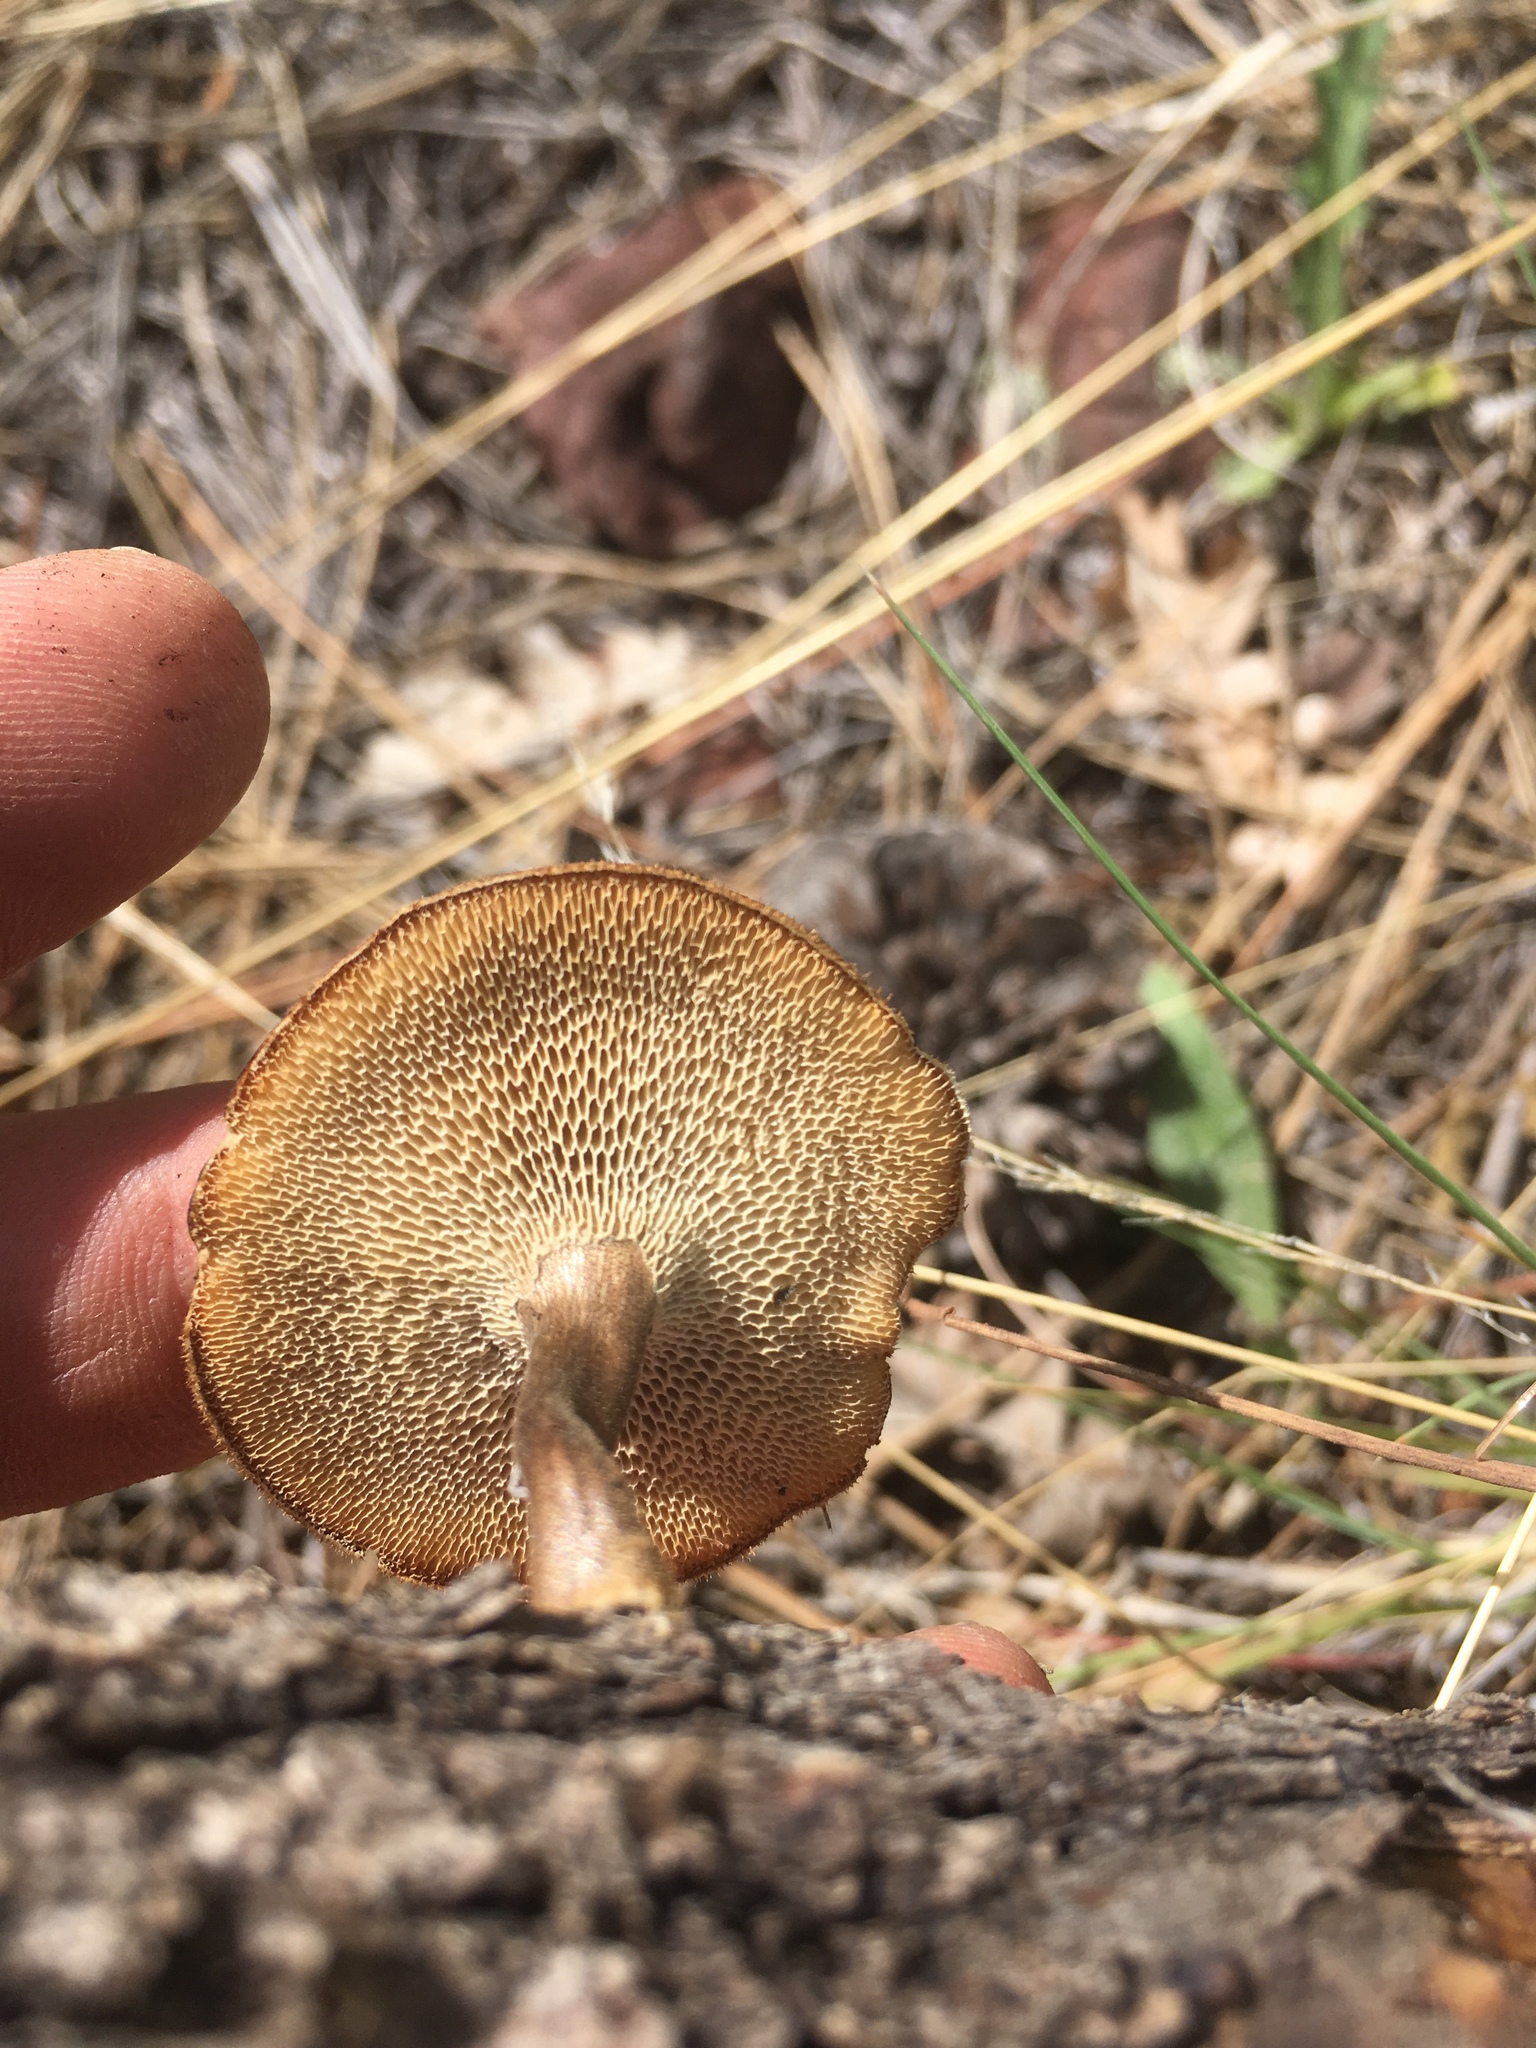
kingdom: Fungi
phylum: Basidiomycota
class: Agaricomycetes
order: Polyporales
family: Polyporaceae
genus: Lentinus
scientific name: Lentinus arcularius
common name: Spring polypore
